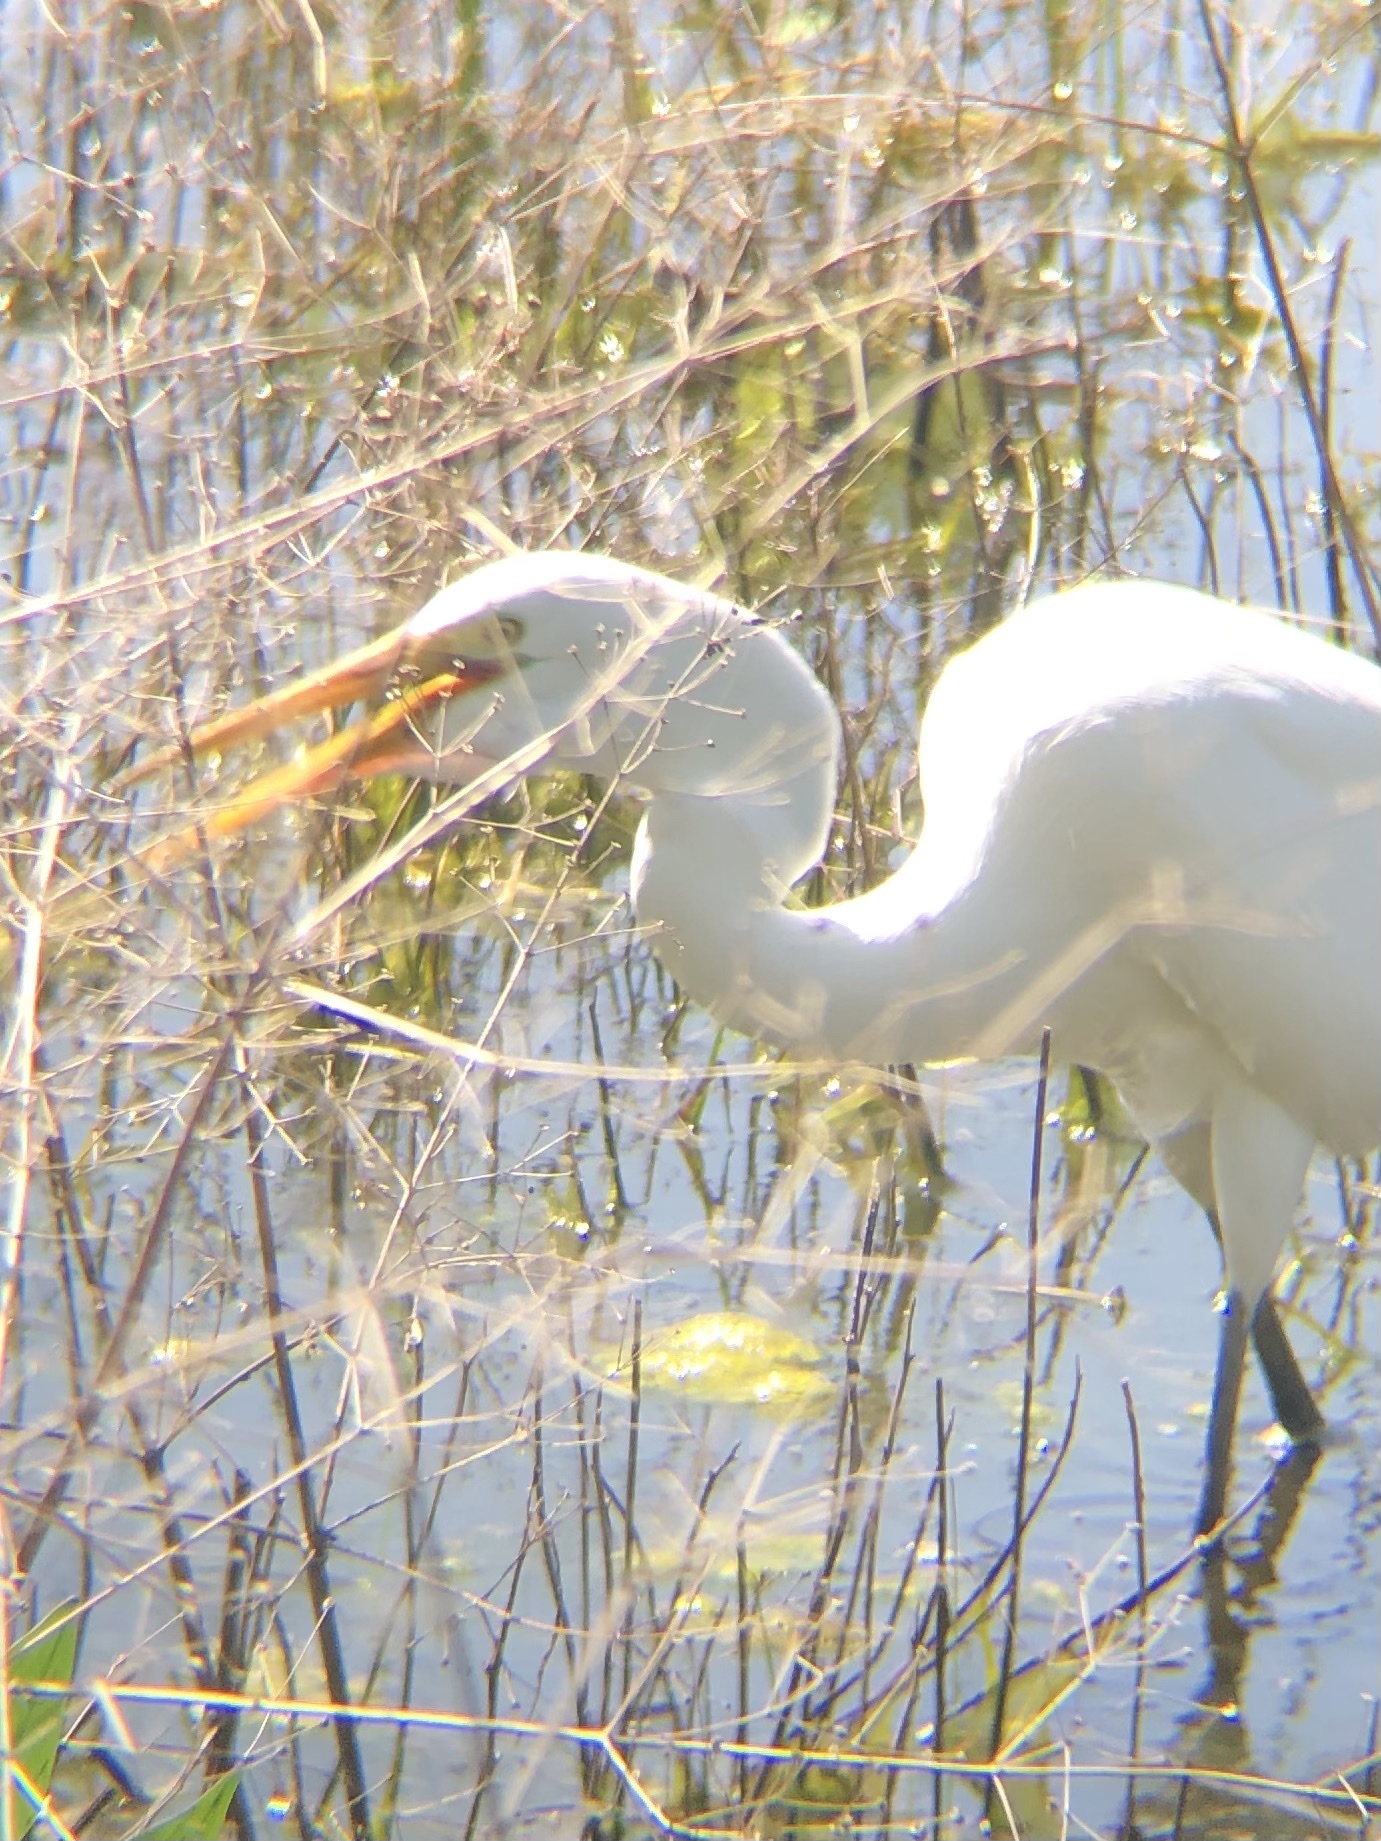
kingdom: Animalia
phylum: Chordata
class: Aves
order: Pelecaniformes
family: Ardeidae
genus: Ardea
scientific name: Ardea alba
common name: Great egret
